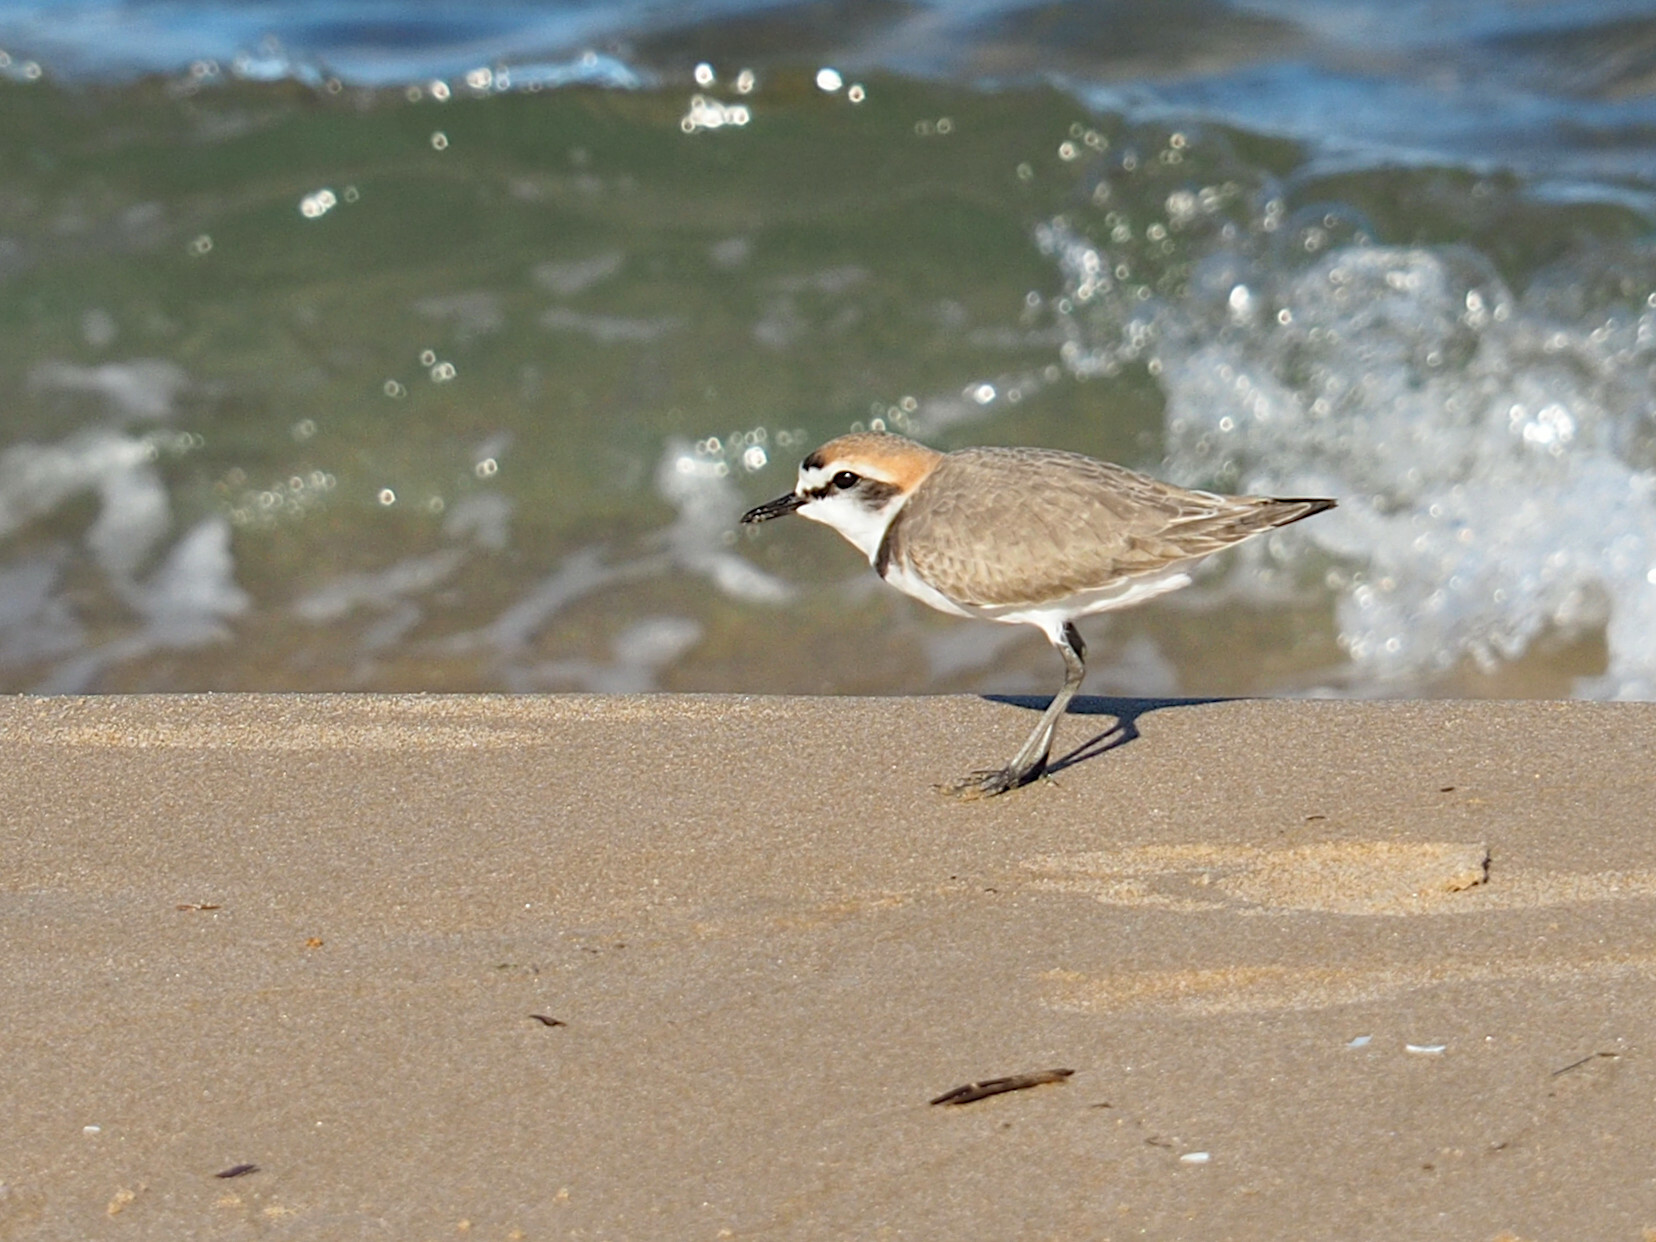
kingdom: Animalia
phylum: Chordata
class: Aves
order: Charadriiformes
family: Charadriidae
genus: Charadrius
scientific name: Charadrius alexandrinus
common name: Kentish plover
